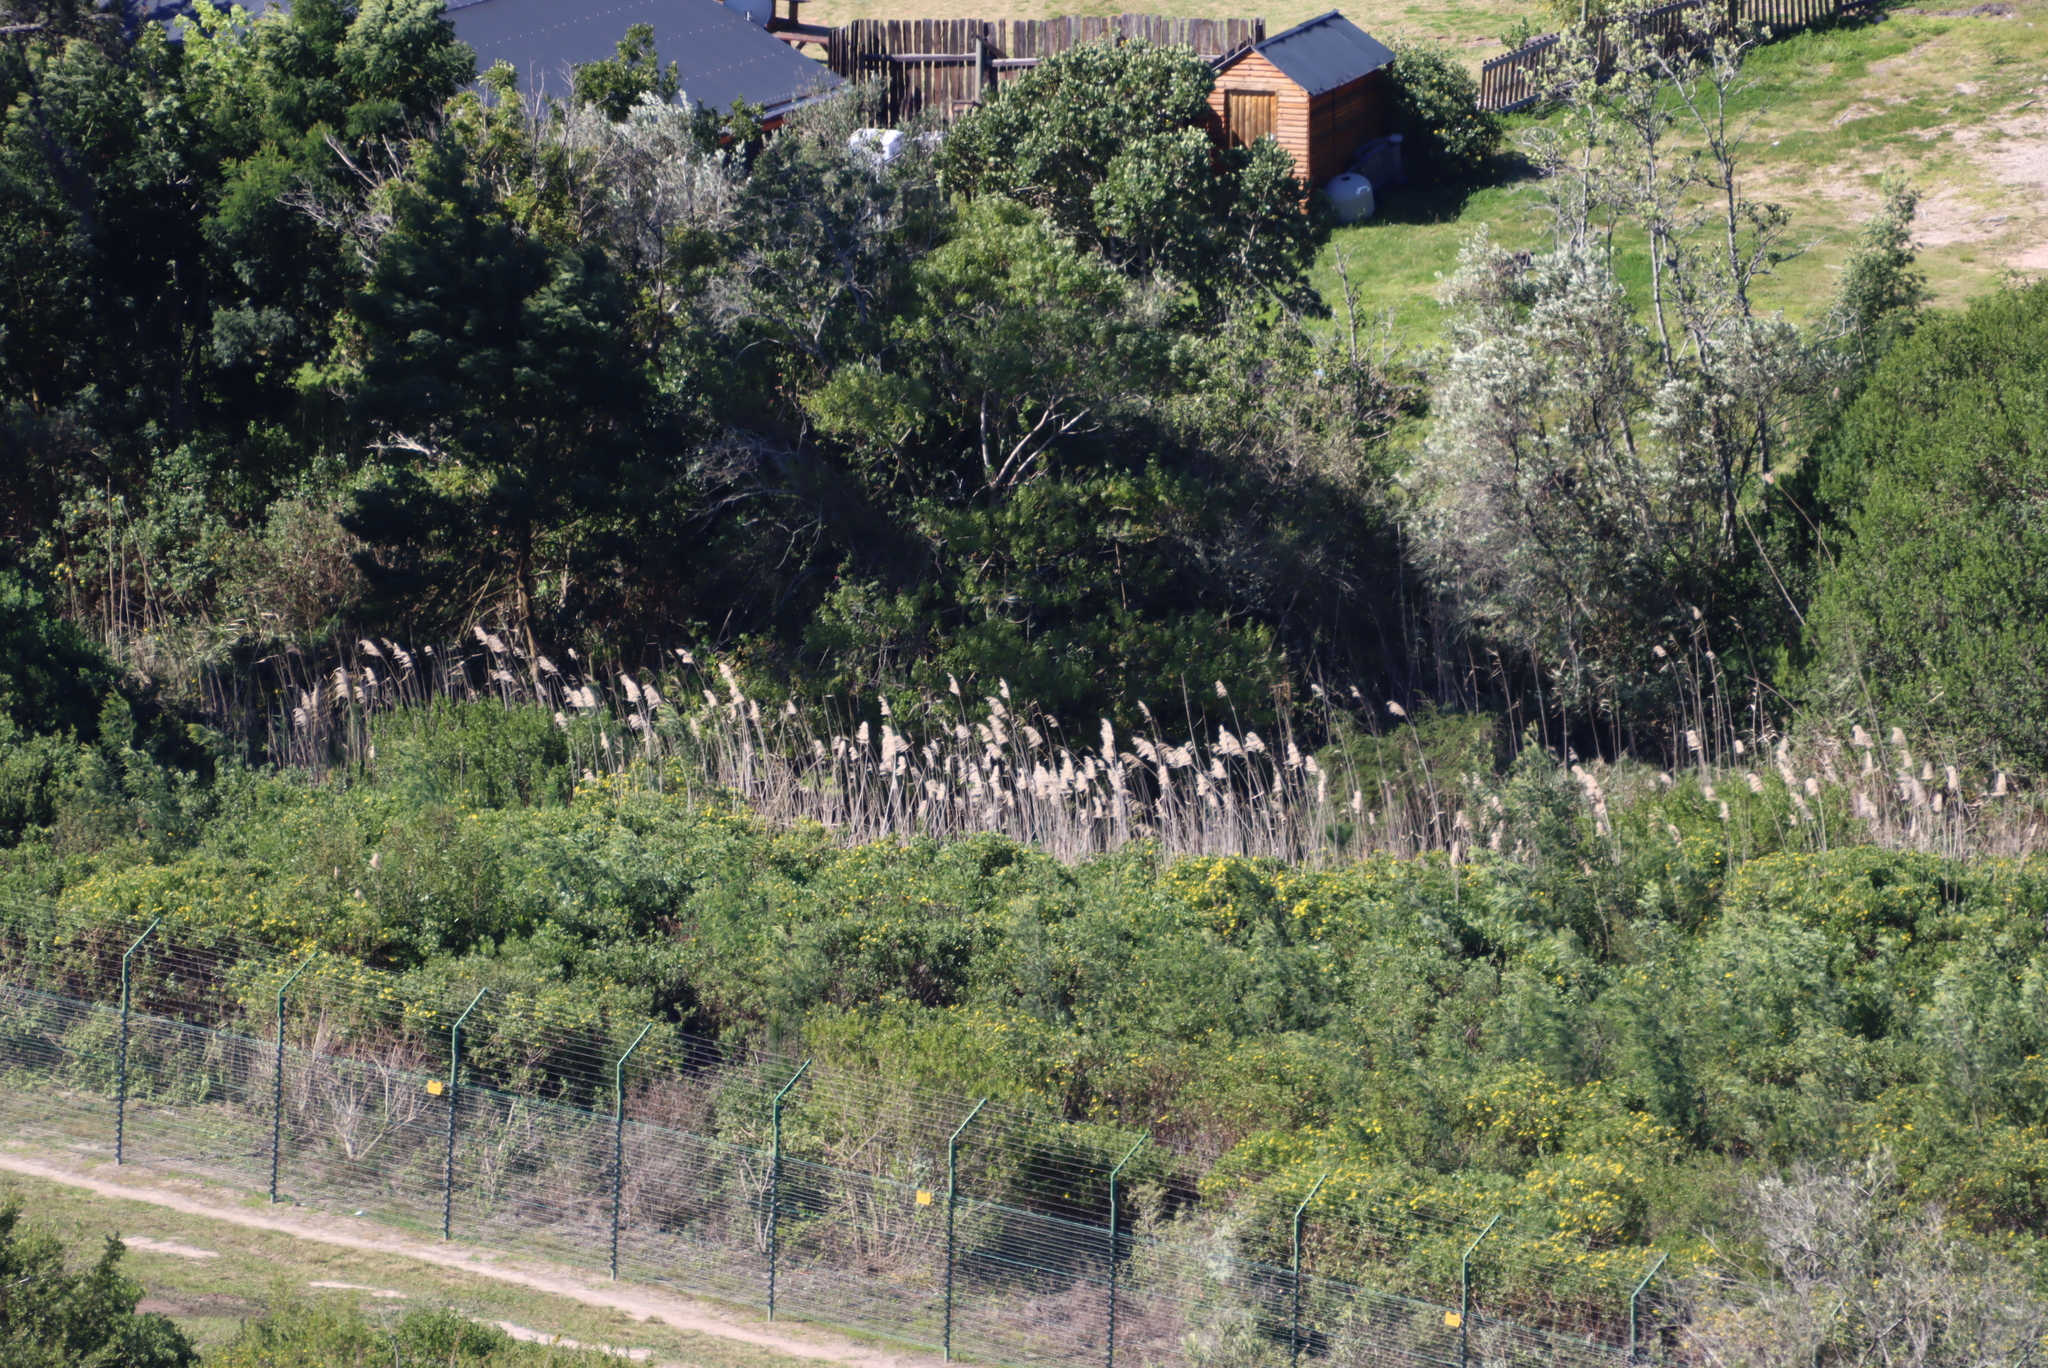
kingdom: Plantae
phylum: Tracheophyta
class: Liliopsida
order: Poales
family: Poaceae
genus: Phragmites
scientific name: Phragmites australis
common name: Common reed
